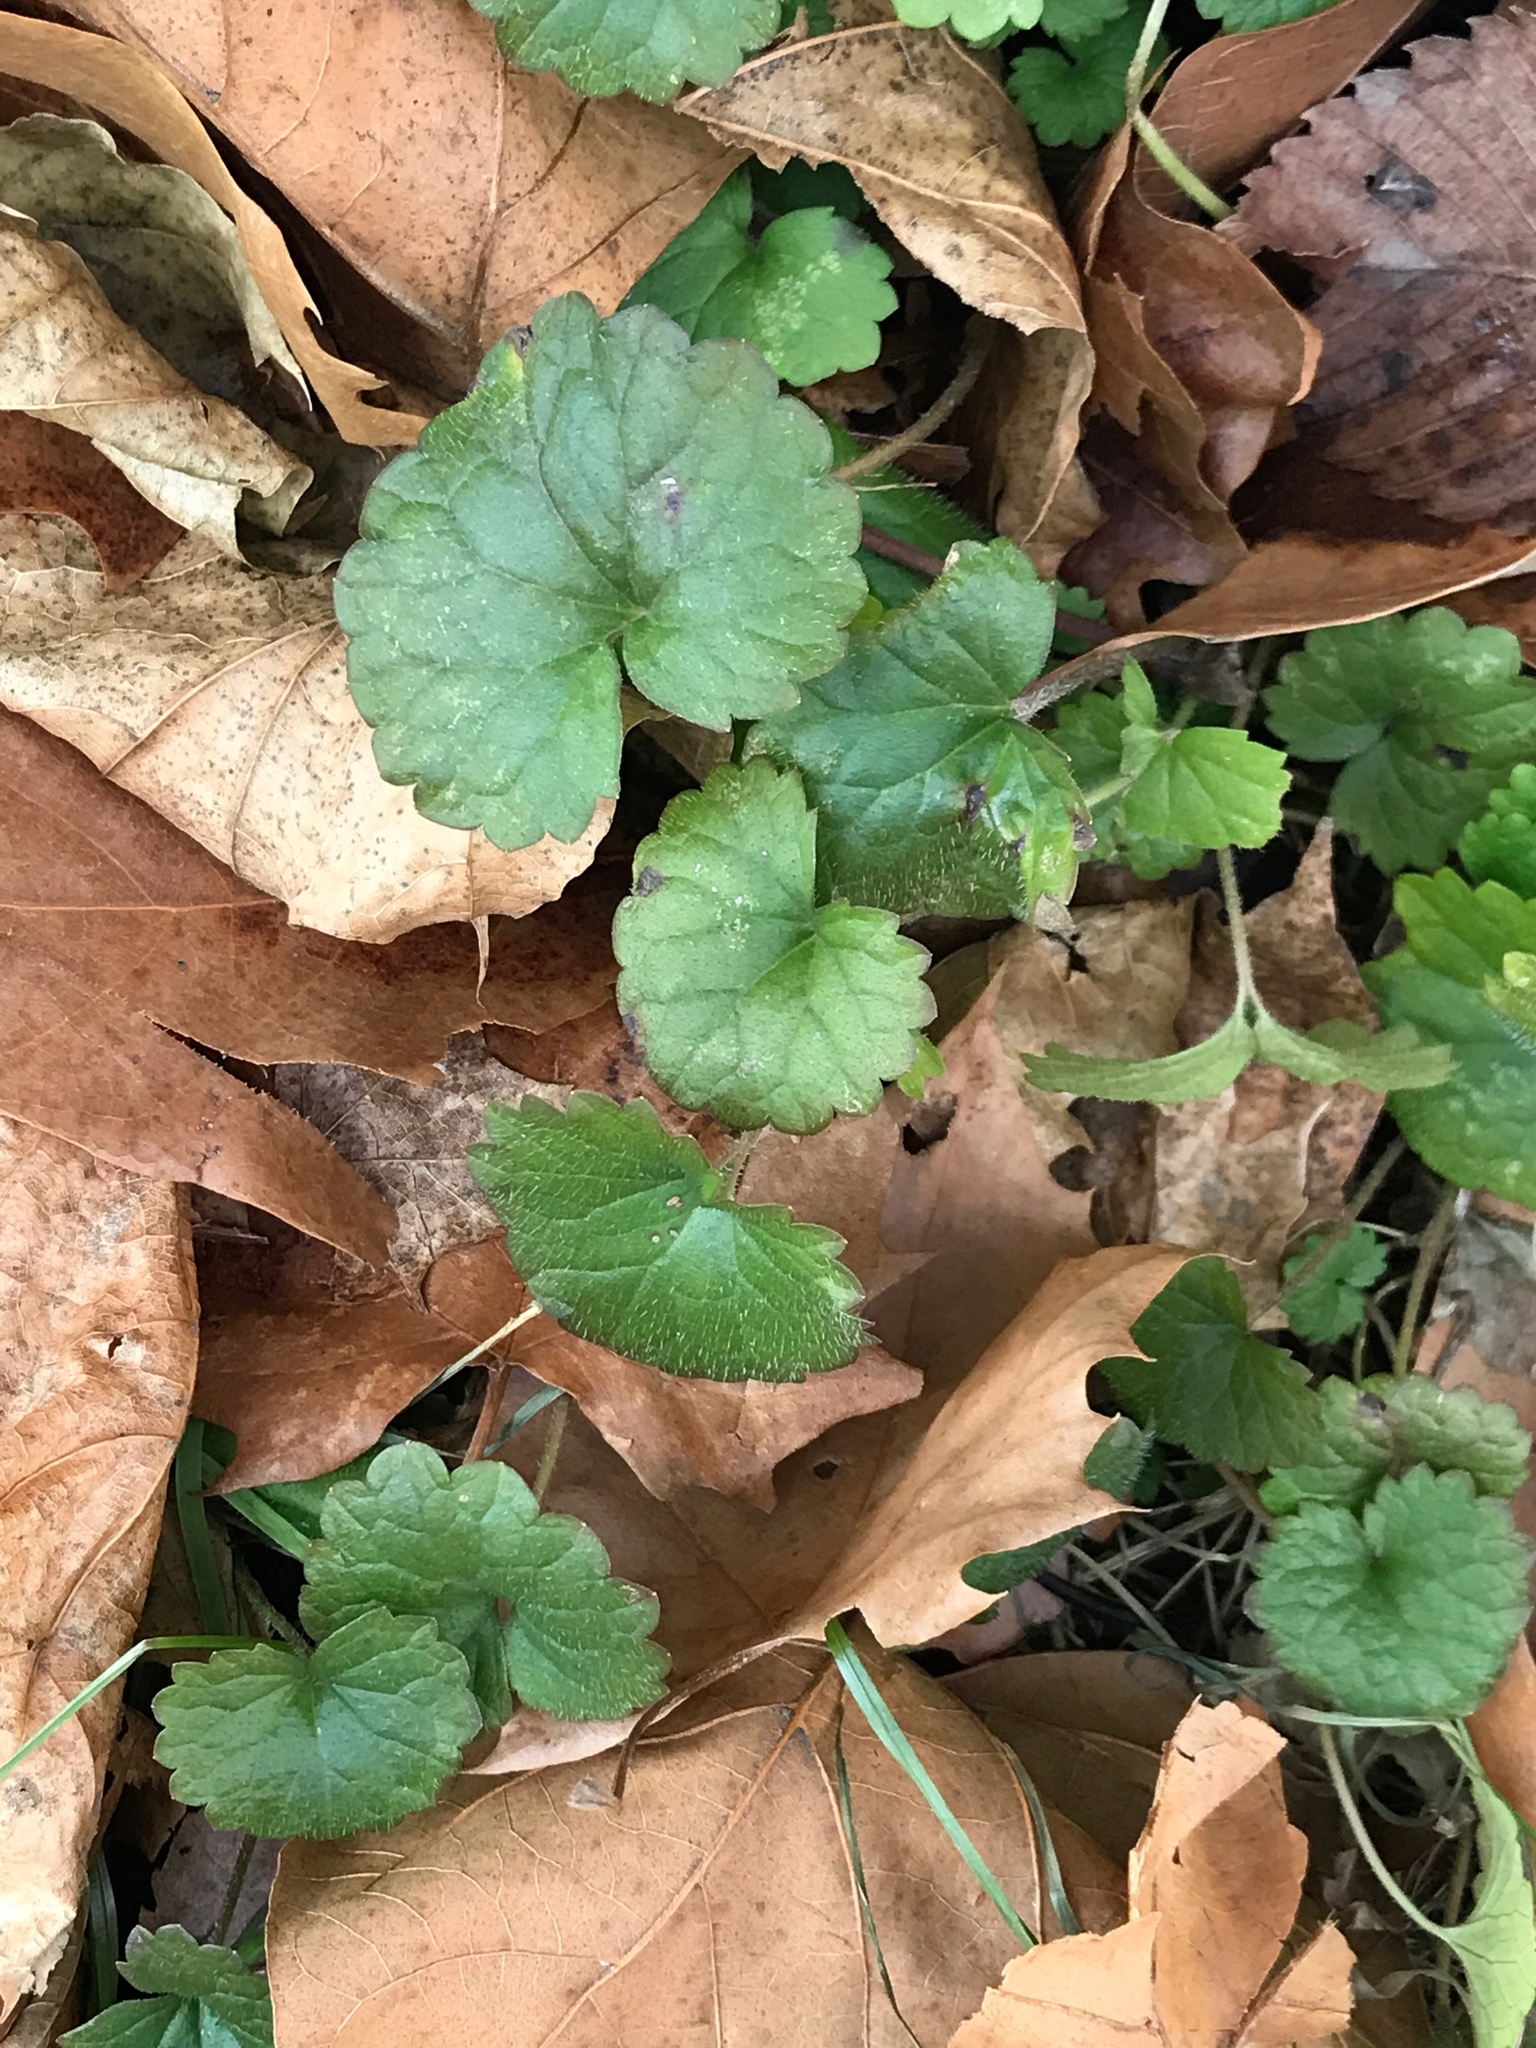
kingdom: Plantae
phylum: Tracheophyta
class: Magnoliopsida
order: Lamiales
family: Lamiaceae
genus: Glechoma
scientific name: Glechoma hederacea
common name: Ground ivy
